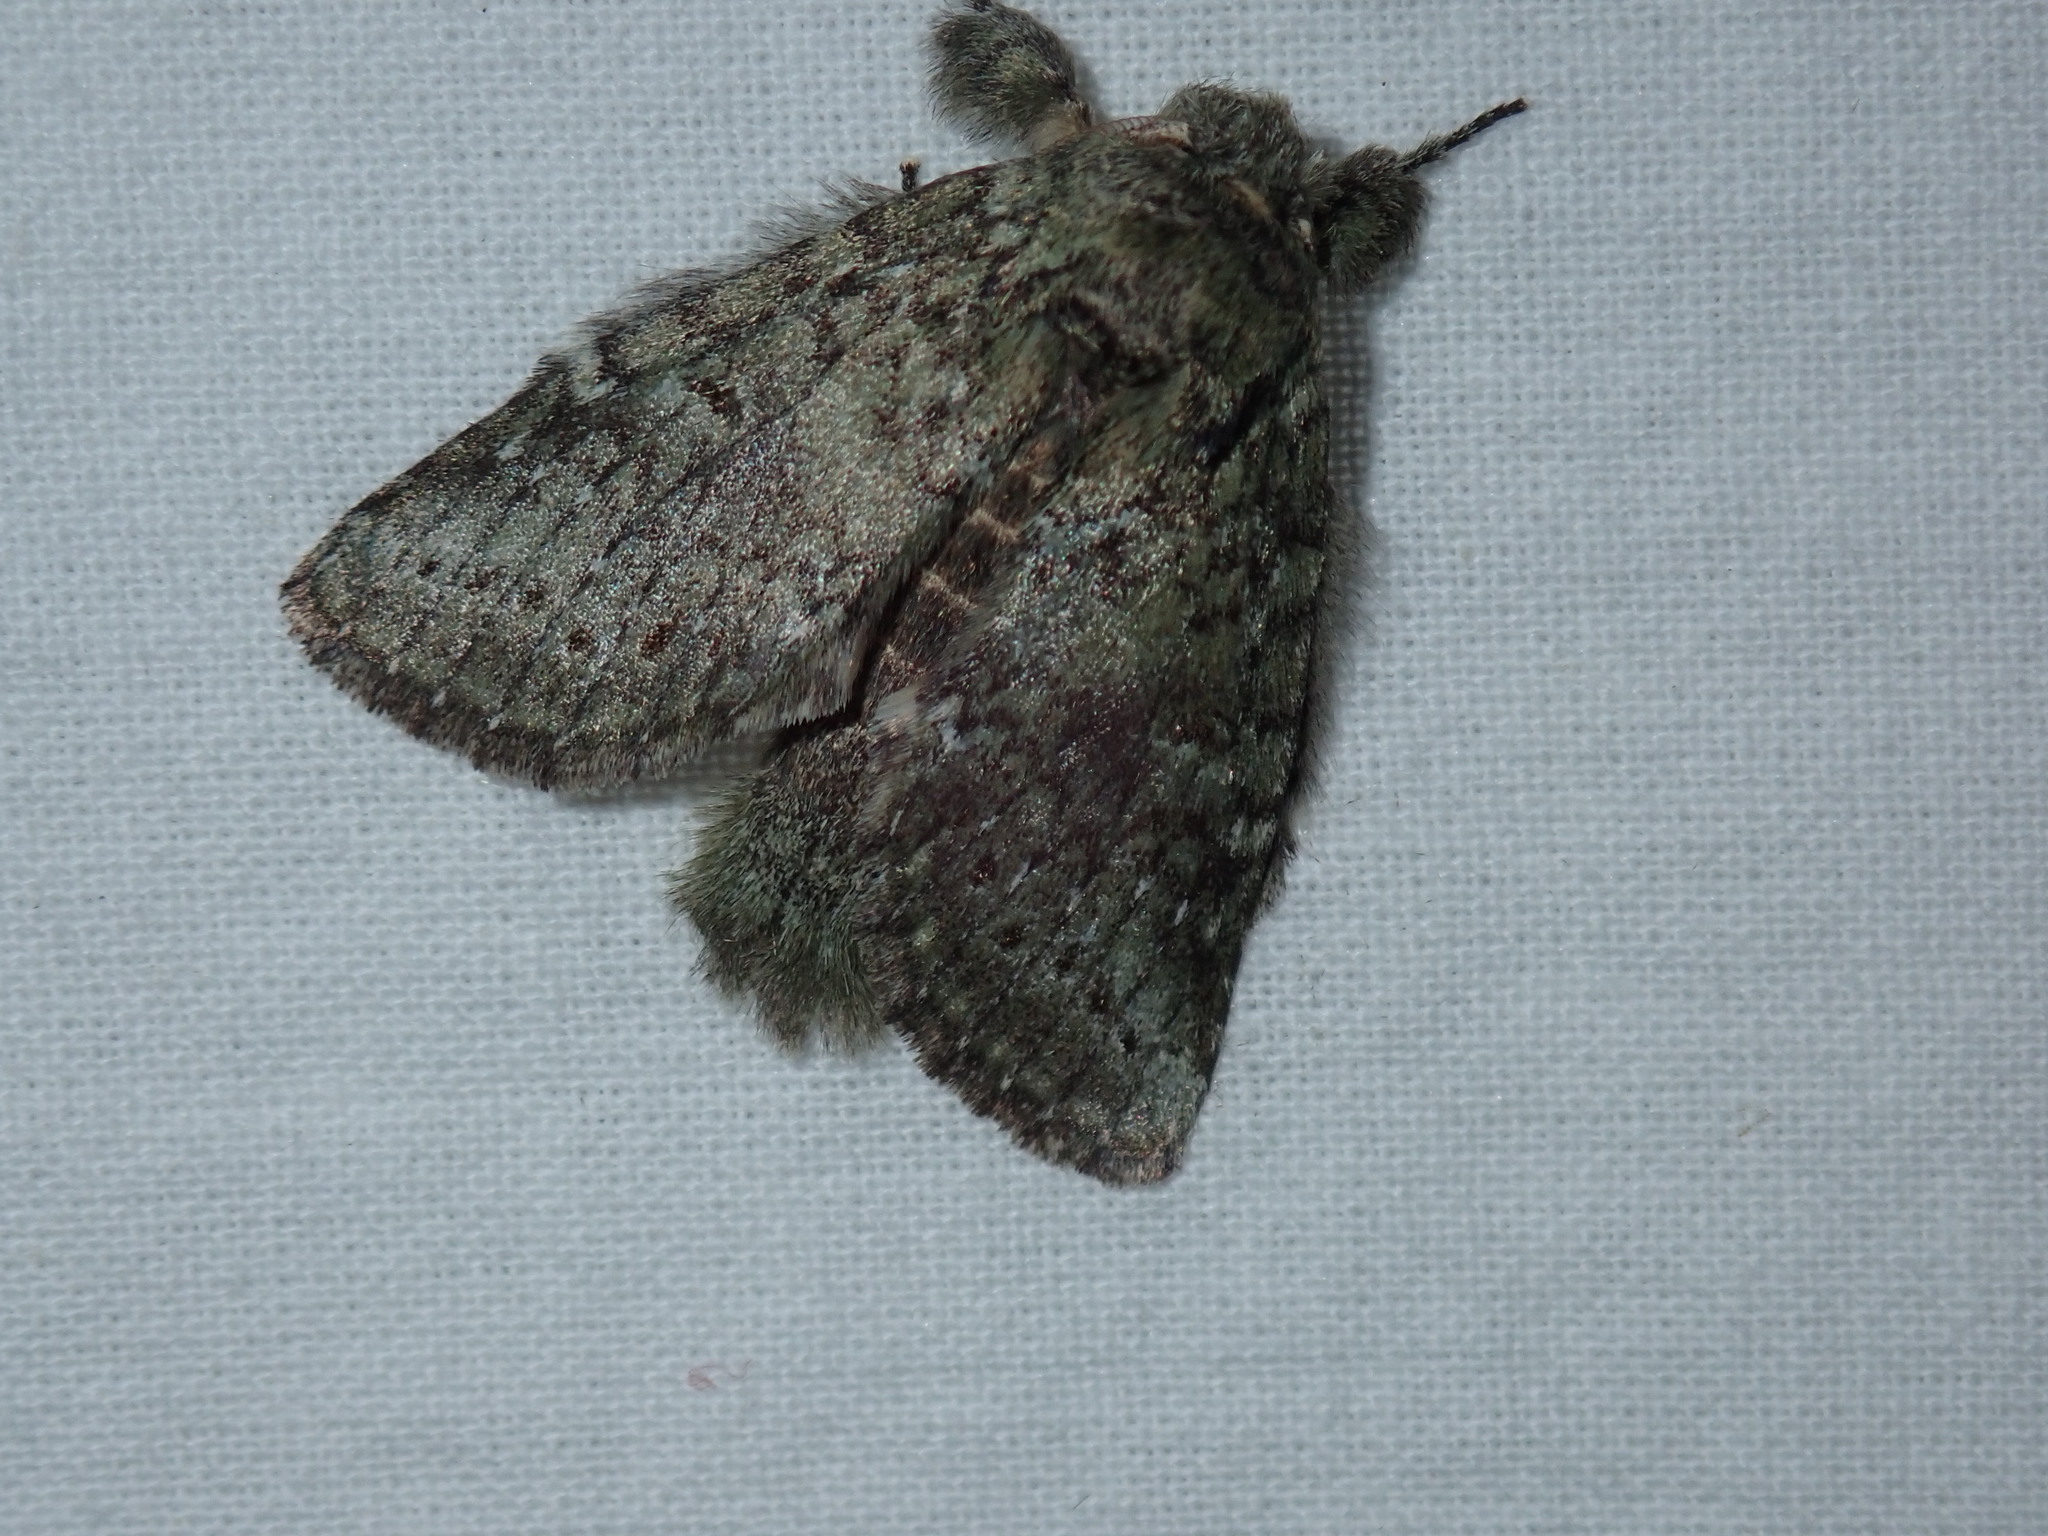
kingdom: Animalia
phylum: Arthropoda
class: Insecta
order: Lepidoptera
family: Notodontidae
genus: Disphragis
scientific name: Disphragis Cecrita guttivitta
